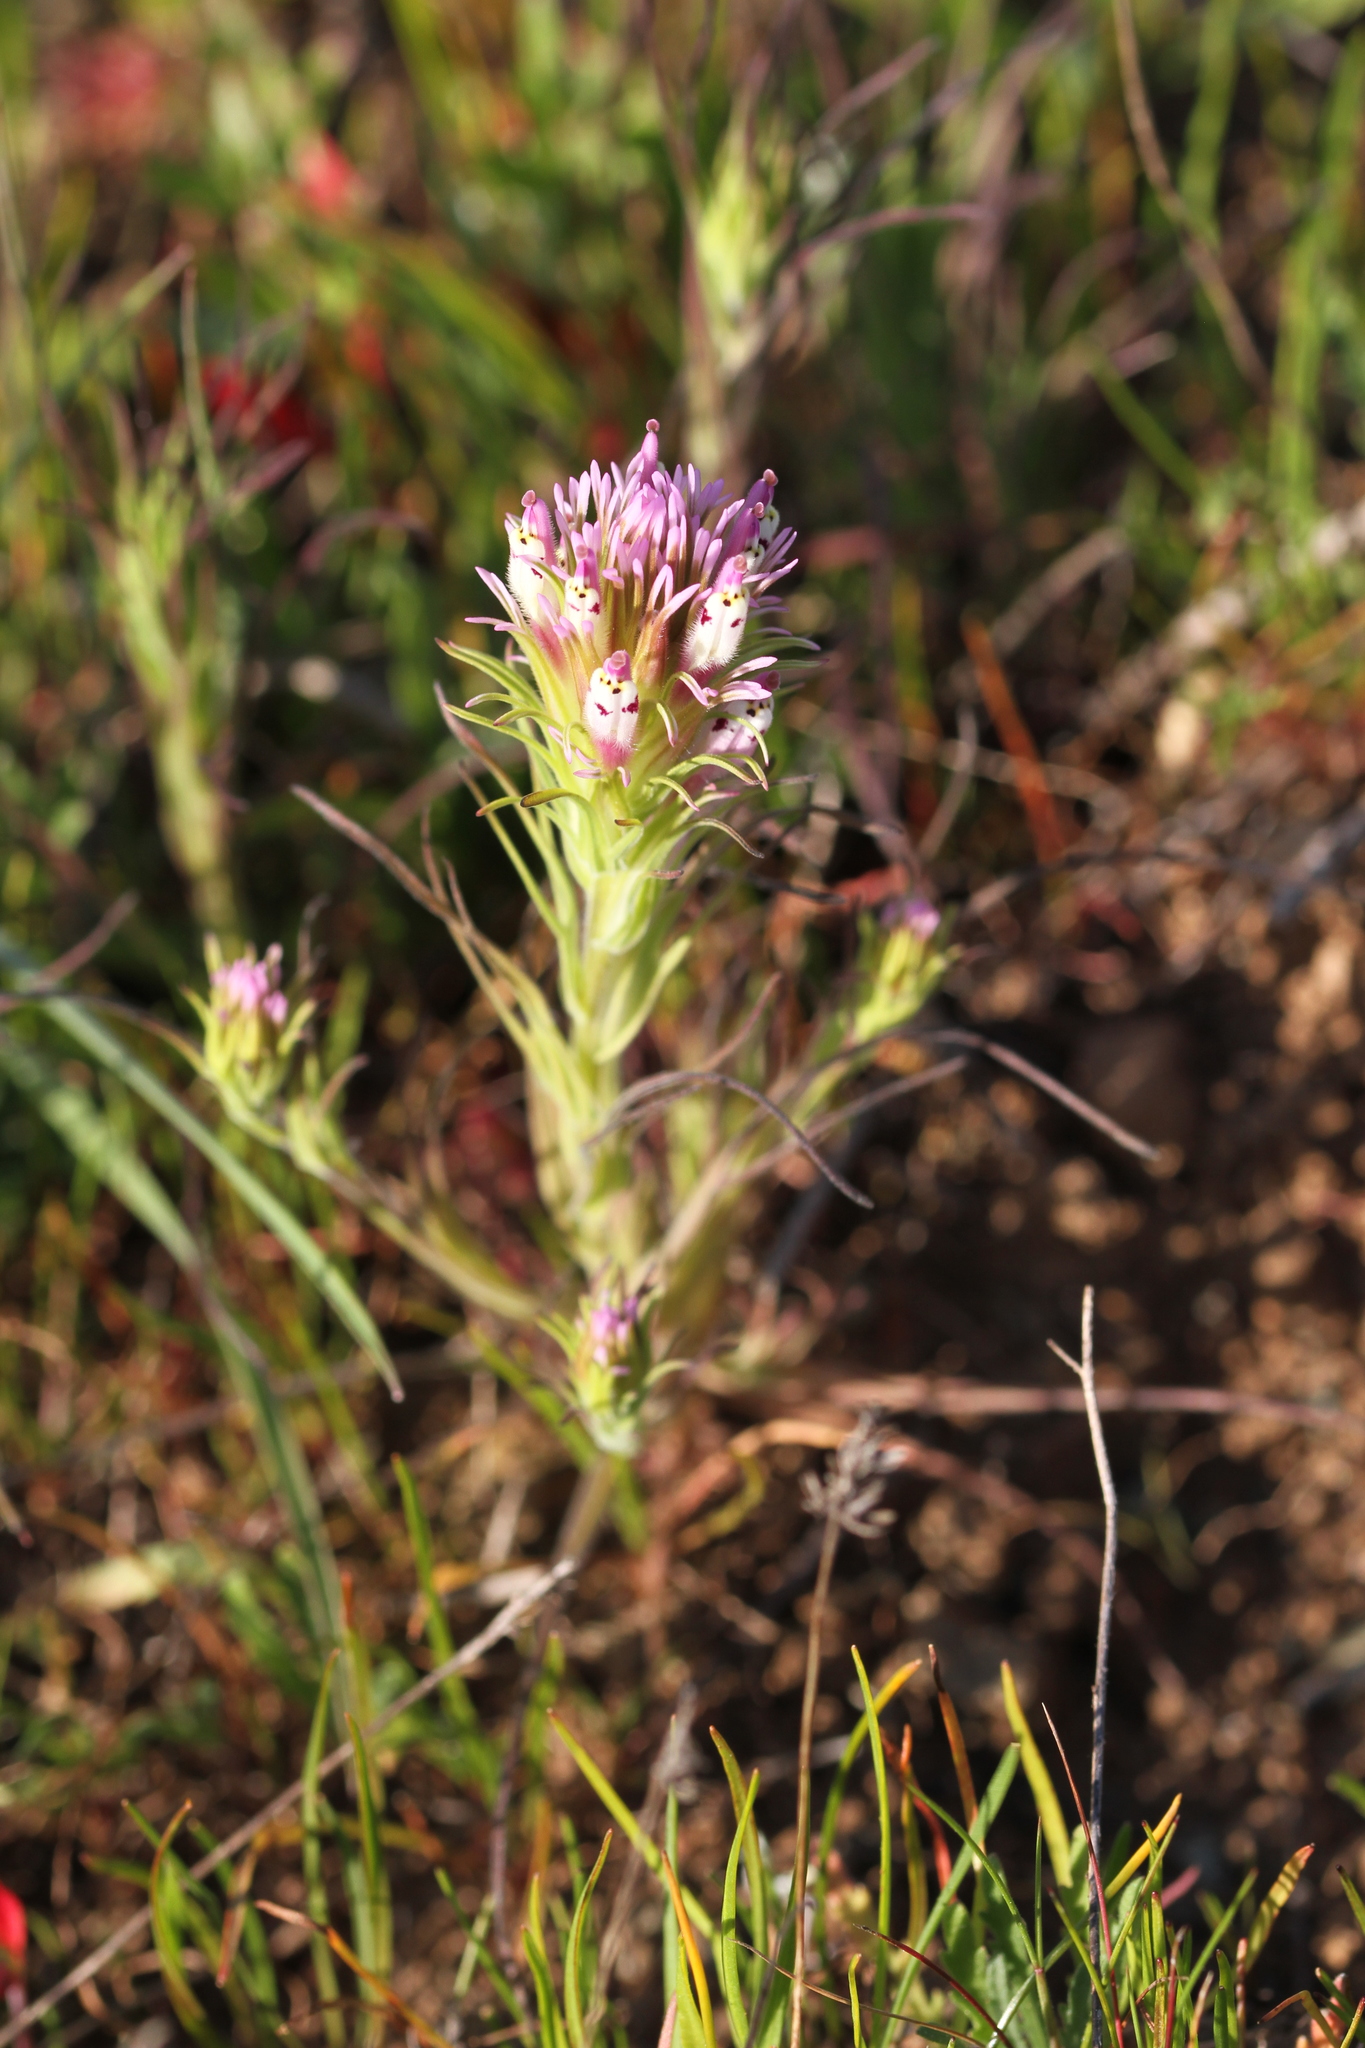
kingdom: Plantae
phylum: Tracheophyta
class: Magnoliopsida
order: Lamiales
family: Orobanchaceae
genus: Castilleja
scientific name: Castilleja densiflora
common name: Dense-flower indian paintbrush
